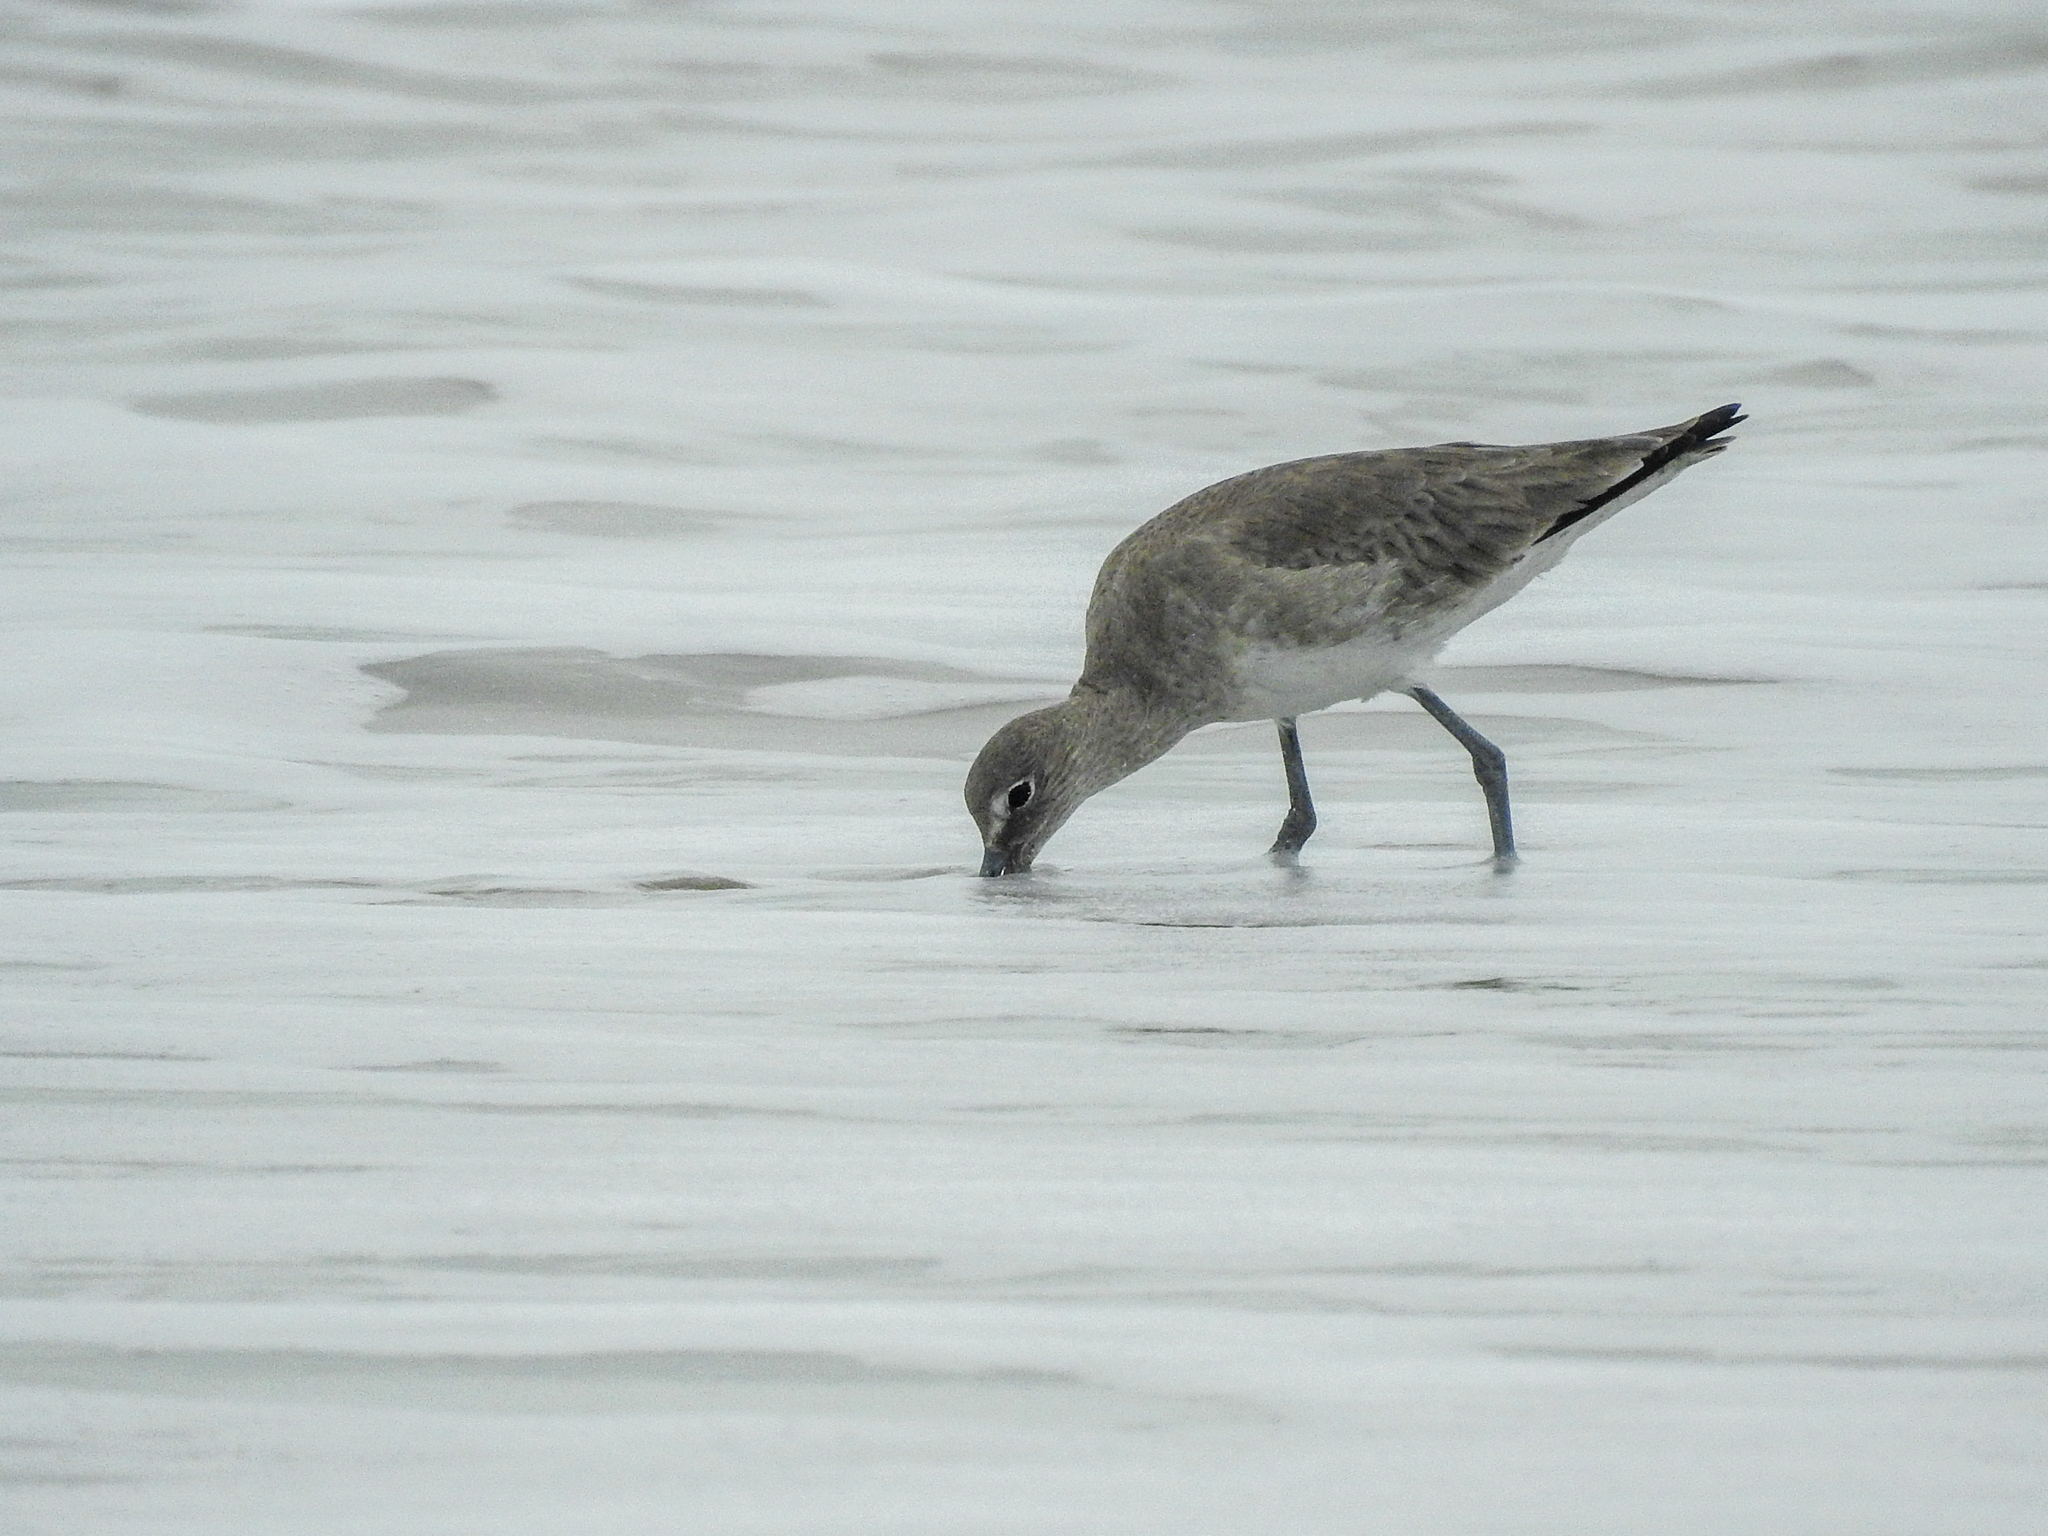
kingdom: Animalia
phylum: Chordata
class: Aves
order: Charadriiformes
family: Scolopacidae
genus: Tringa
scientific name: Tringa semipalmata
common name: Willet
